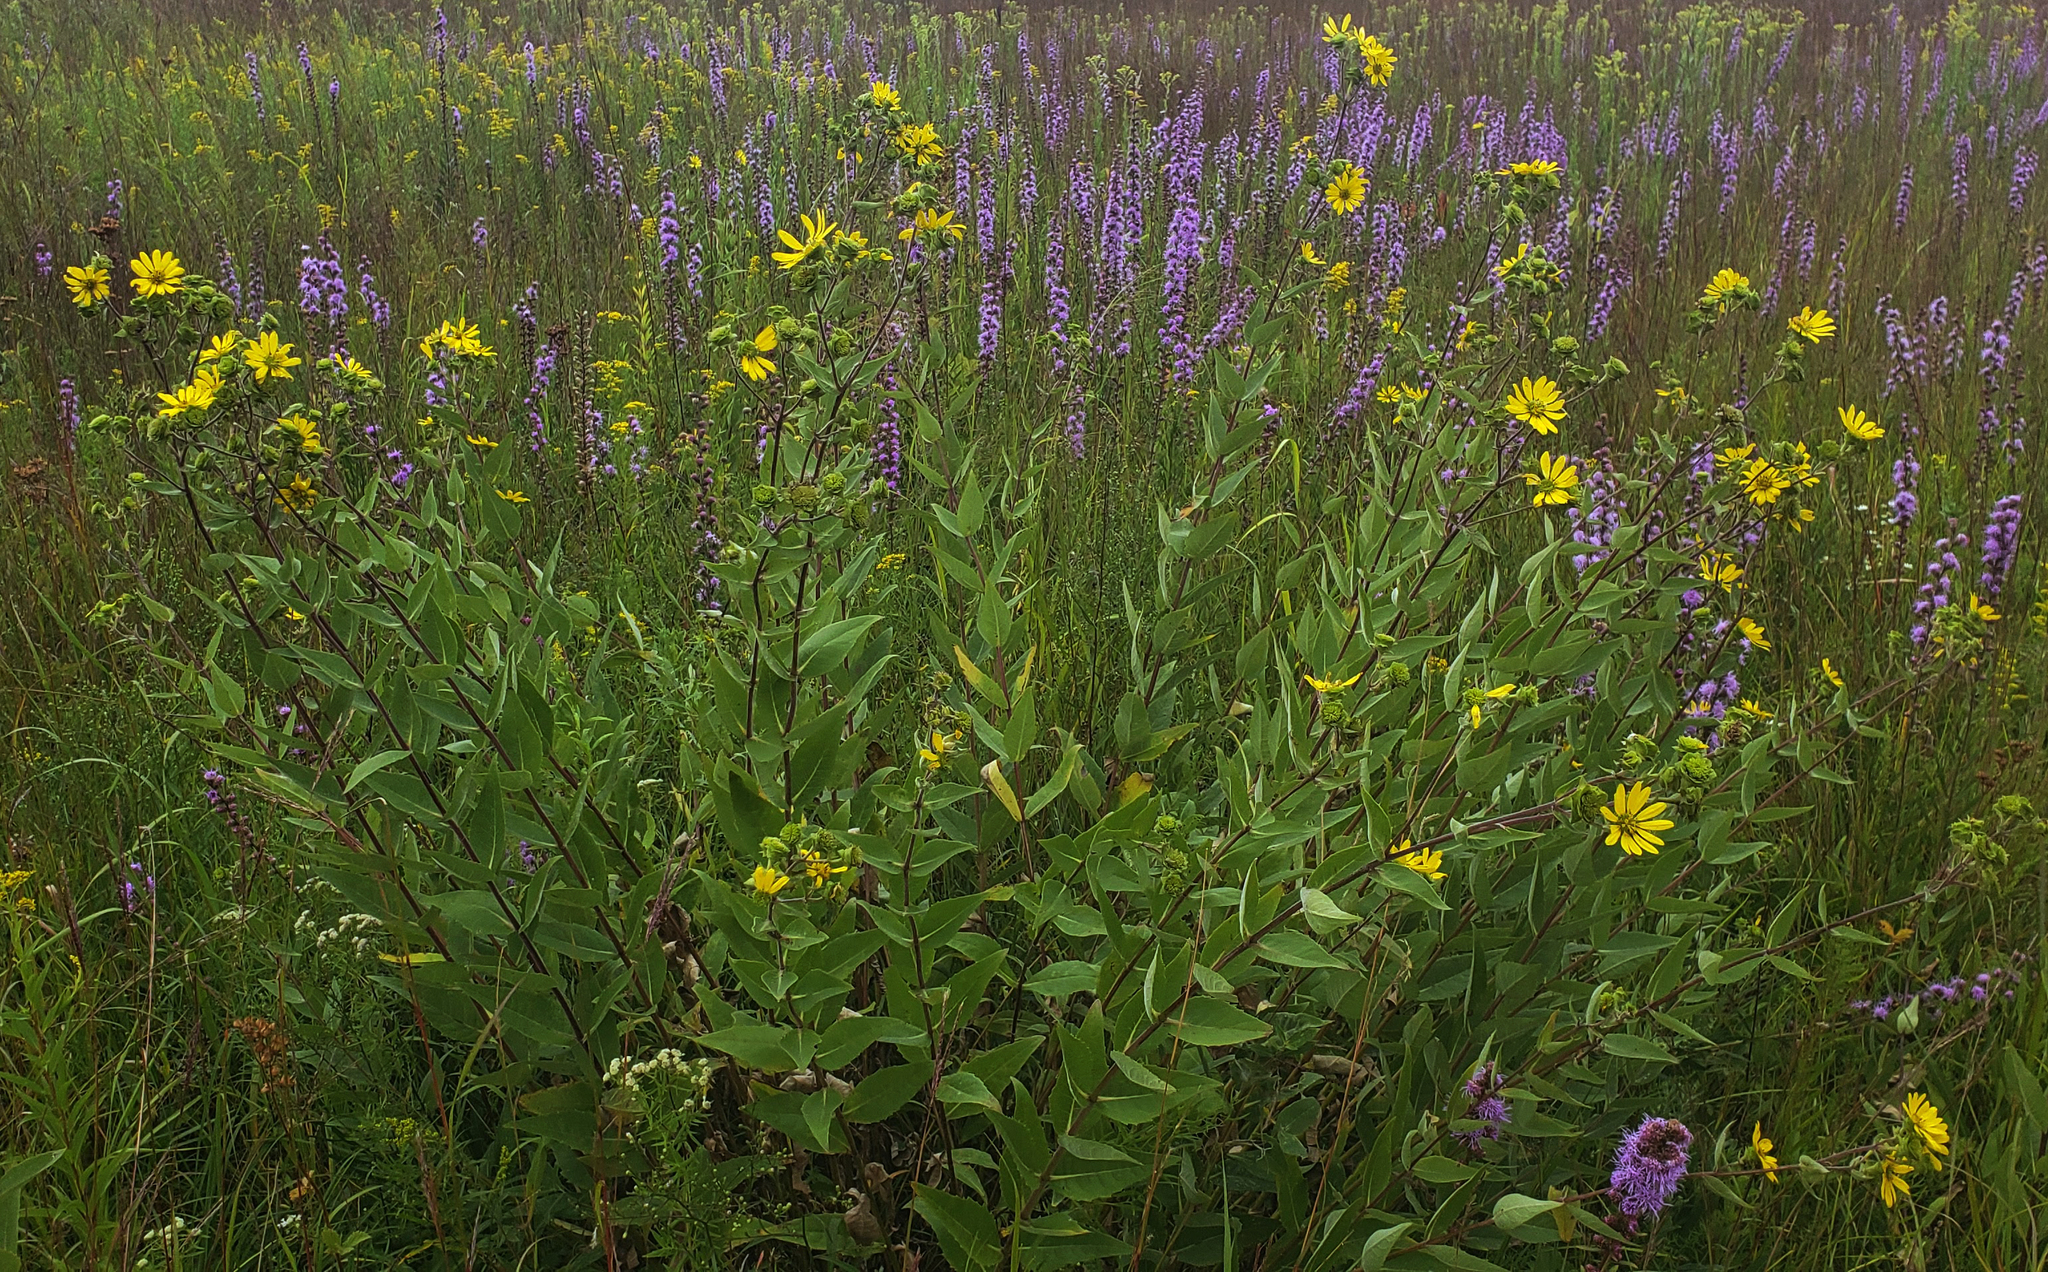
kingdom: Plantae
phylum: Tracheophyta
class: Magnoliopsida
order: Asterales
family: Asteraceae
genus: Silphium
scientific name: Silphium integrifolium
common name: Whole-leaf rosinweed
